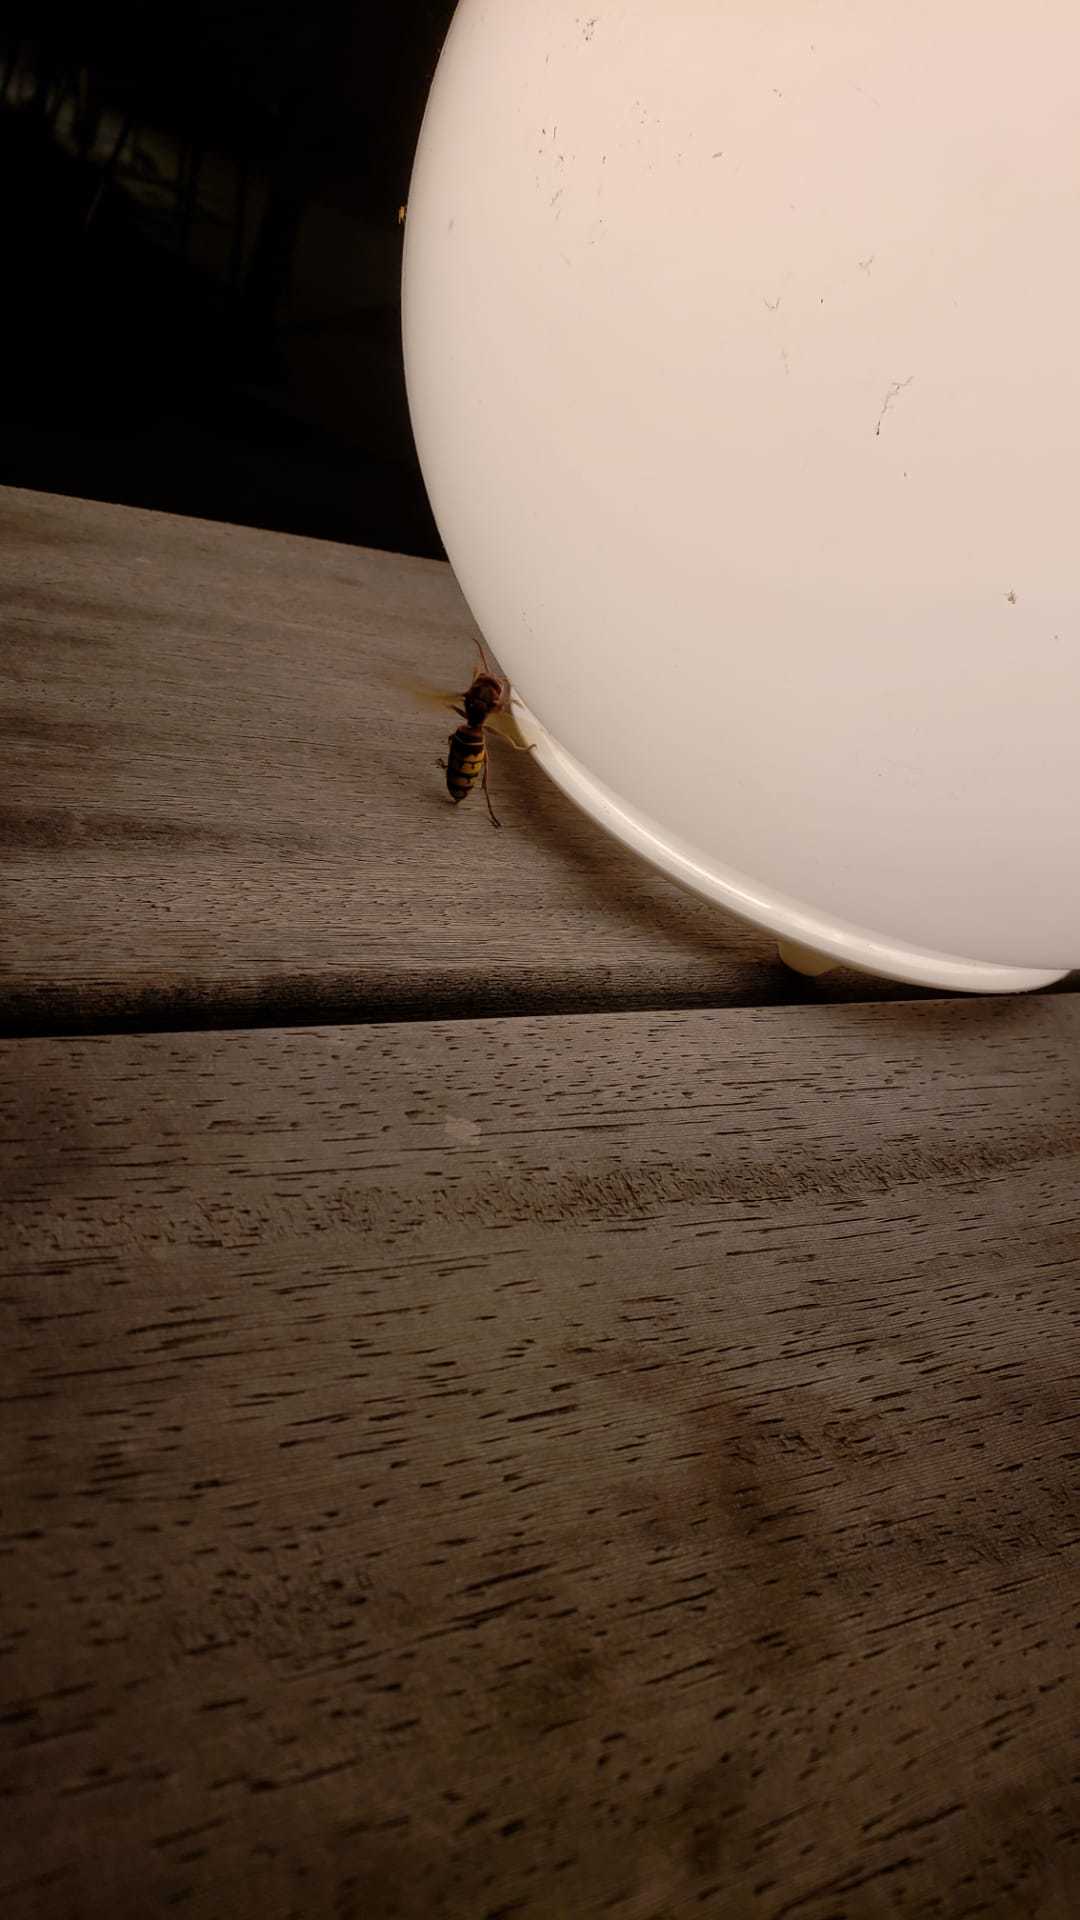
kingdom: Animalia
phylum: Arthropoda
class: Insecta
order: Hymenoptera
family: Vespidae
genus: Vespa
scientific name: Vespa crabro
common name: Hornet
